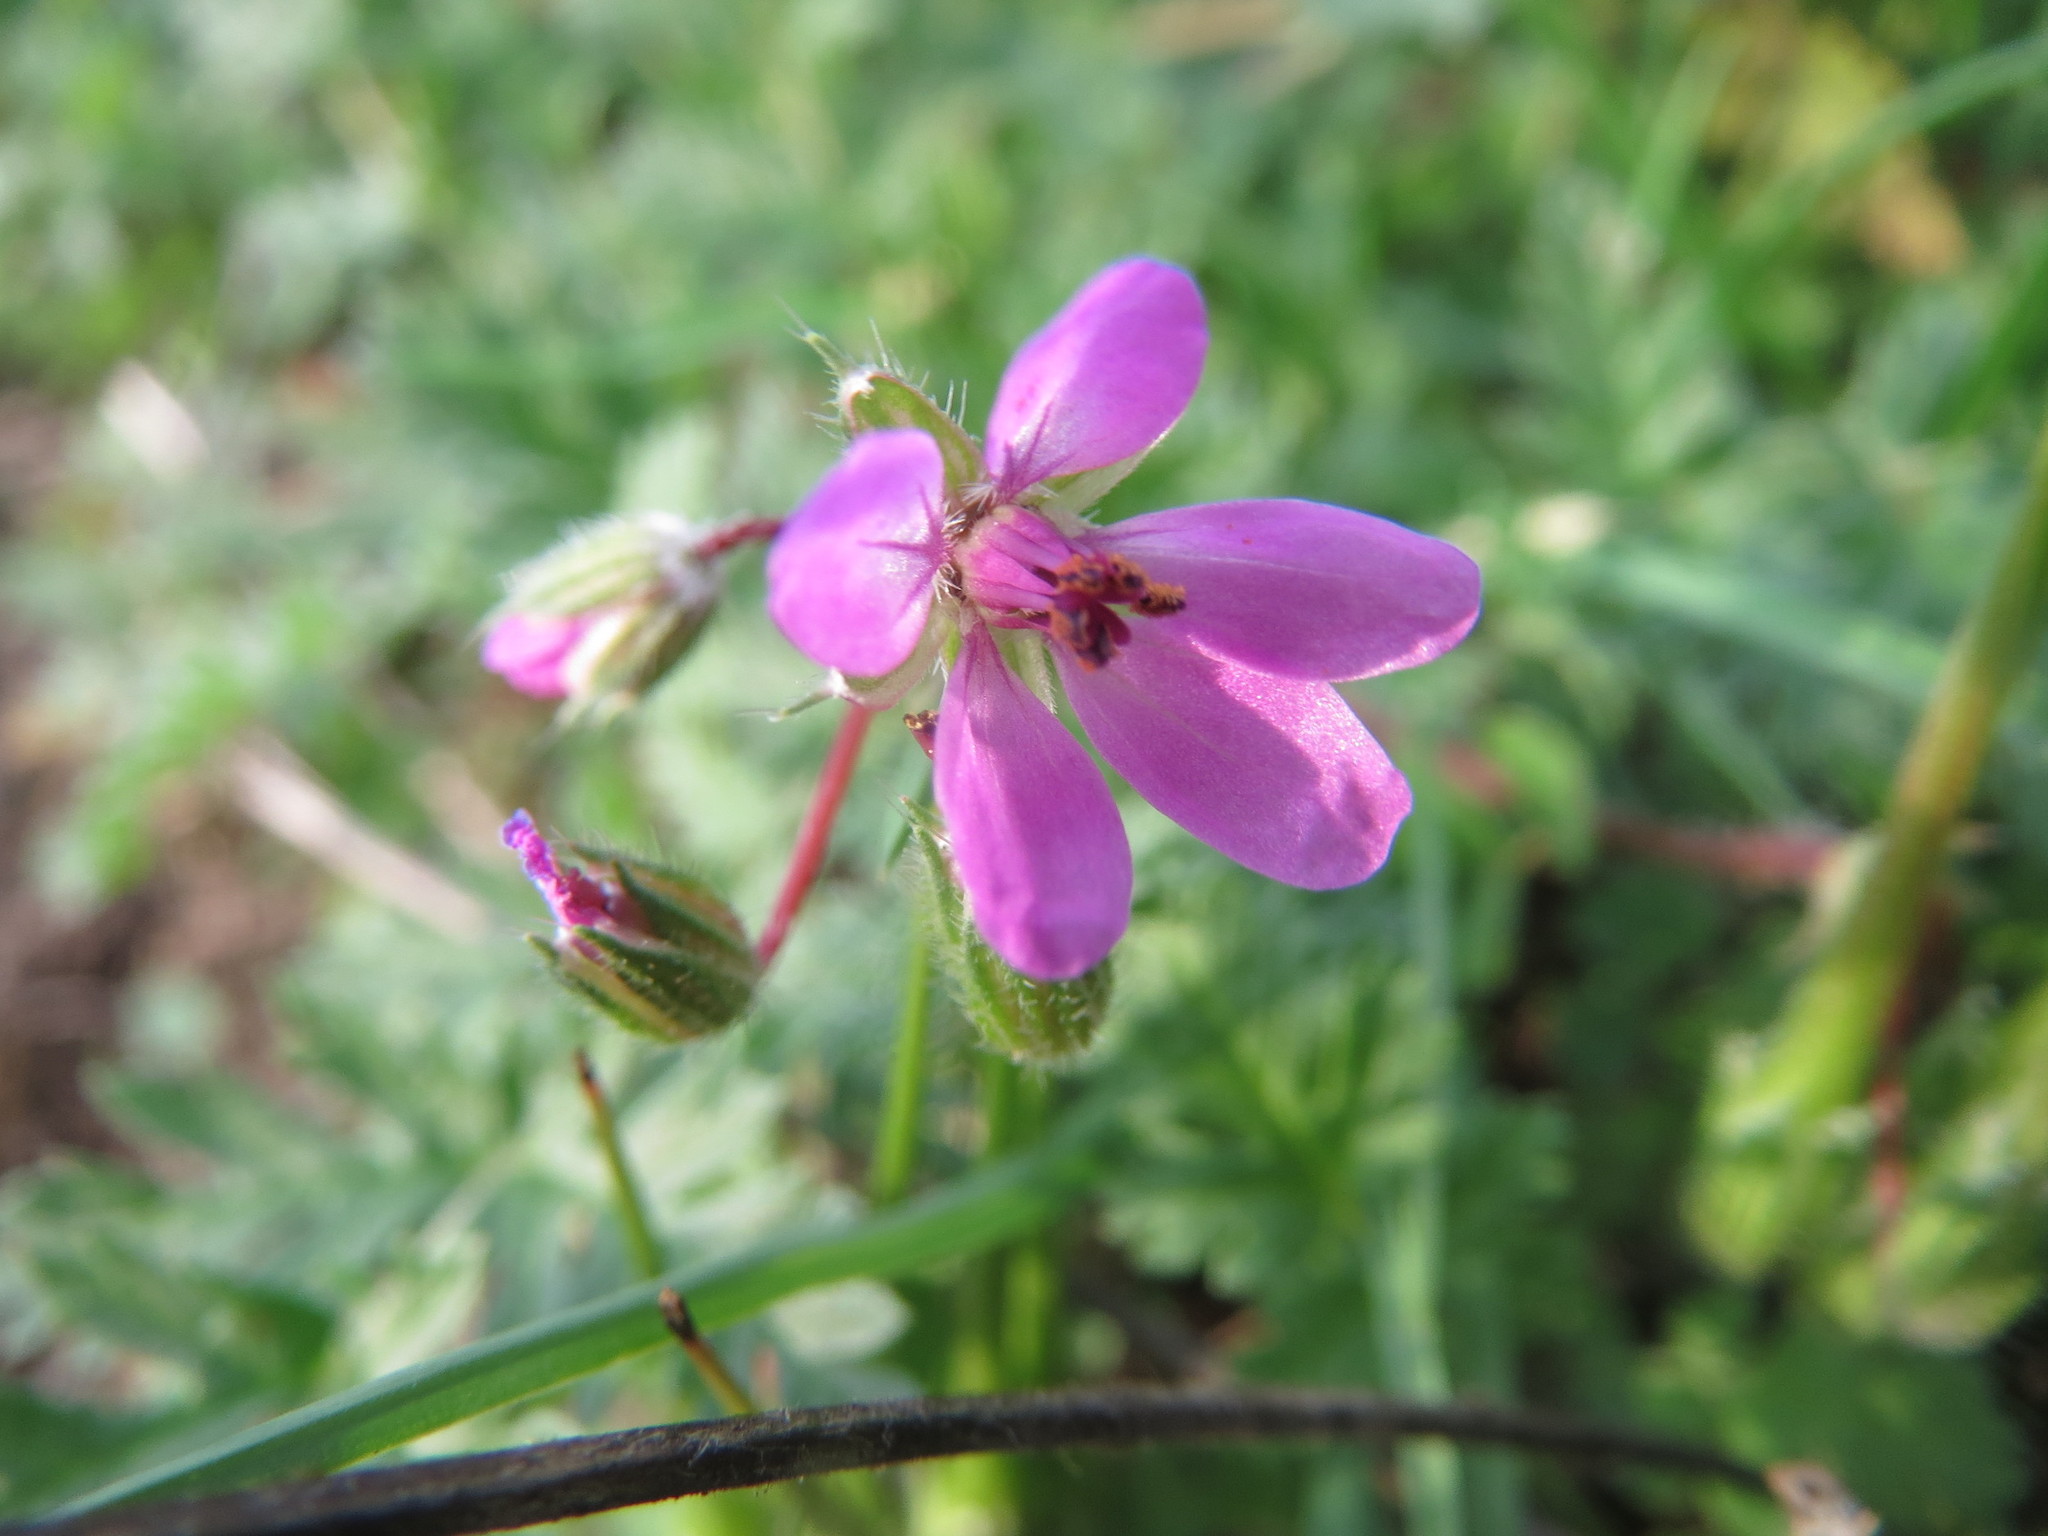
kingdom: Plantae
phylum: Tracheophyta
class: Magnoliopsida
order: Geraniales
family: Geraniaceae
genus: Erodium
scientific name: Erodium cicutarium
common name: Common stork's-bill
